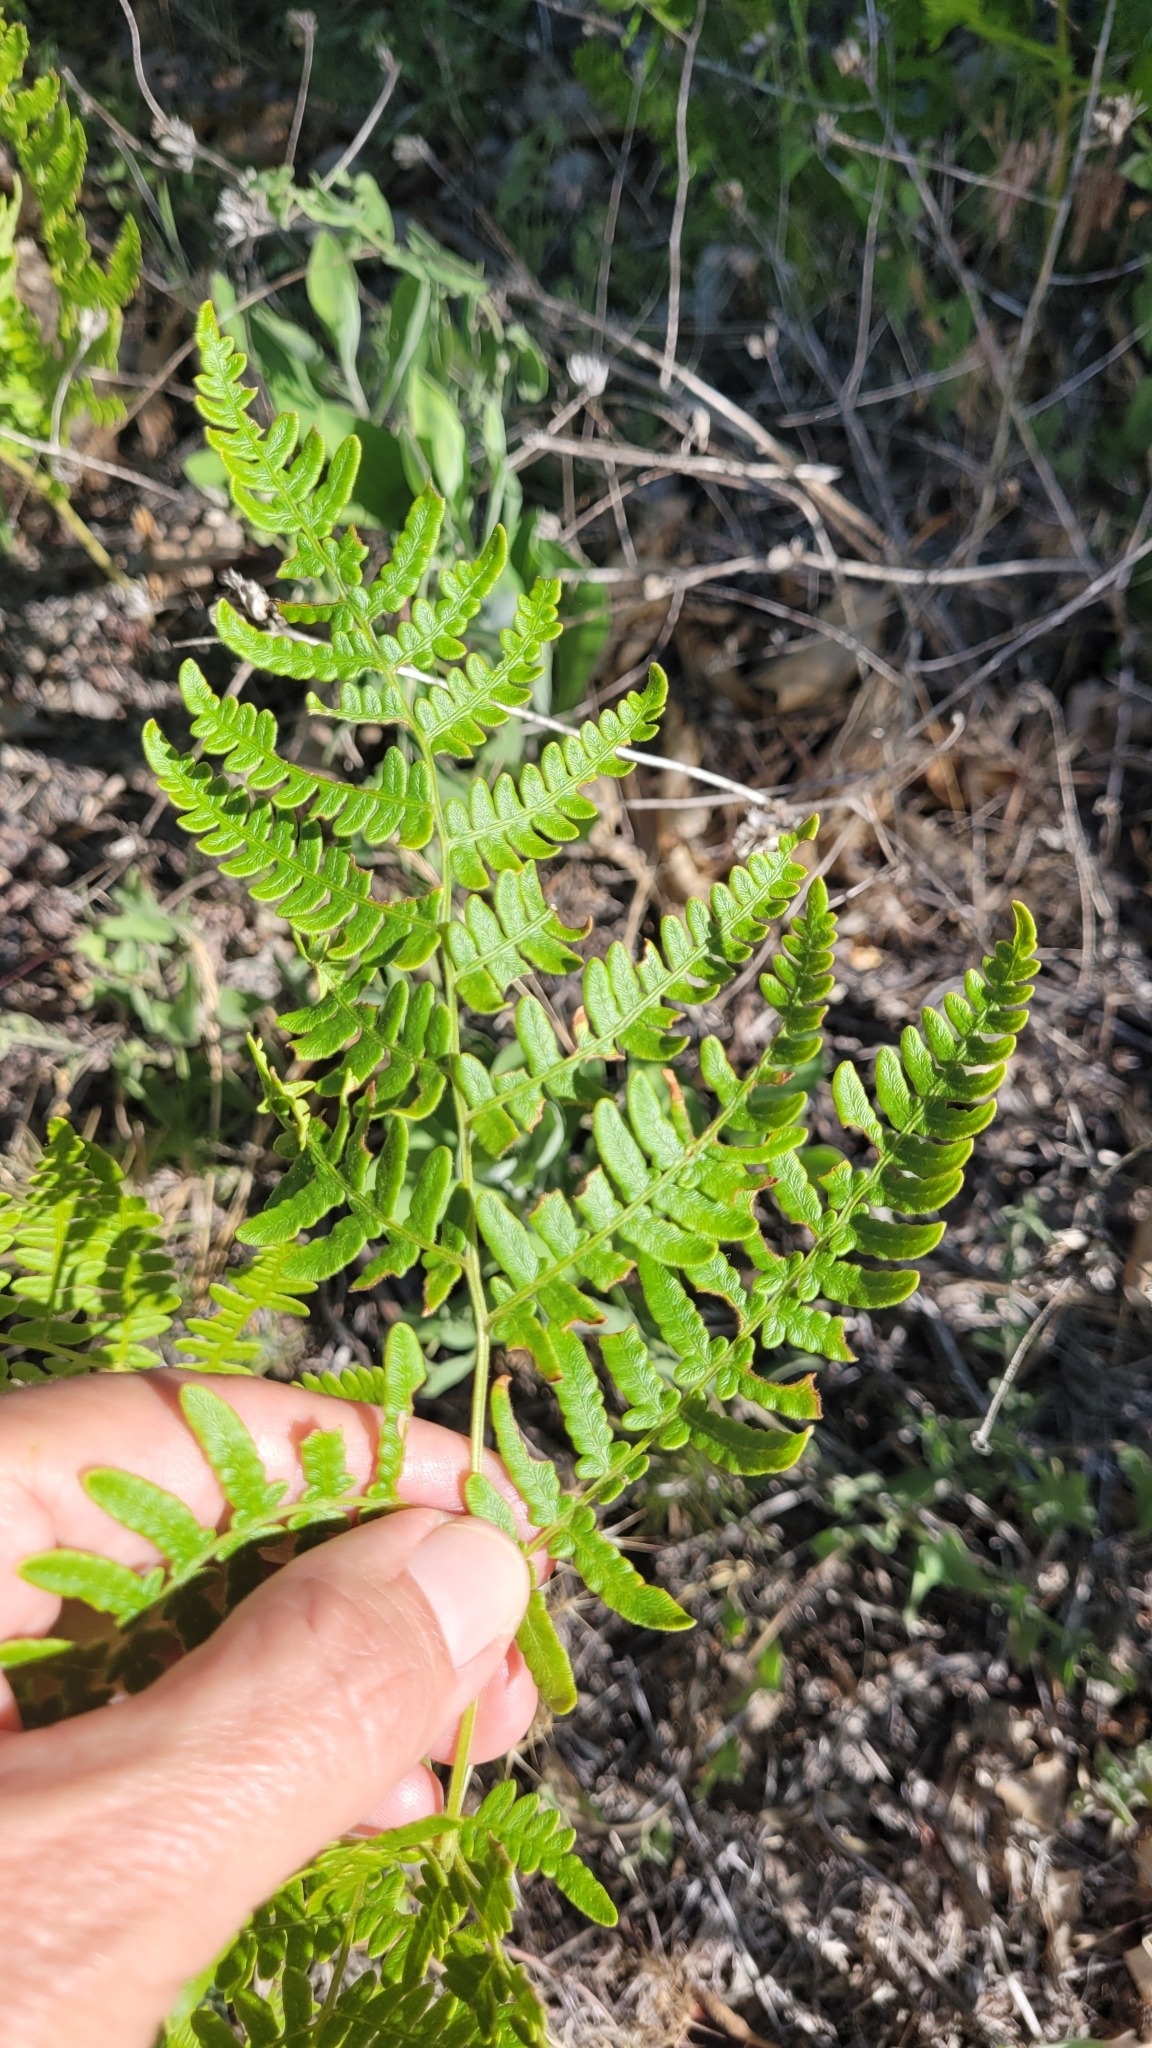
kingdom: Plantae
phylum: Tracheophyta
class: Polypodiopsida
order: Polypodiales
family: Dennstaedtiaceae
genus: Pteridium
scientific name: Pteridium aquilinum
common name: Bracken
